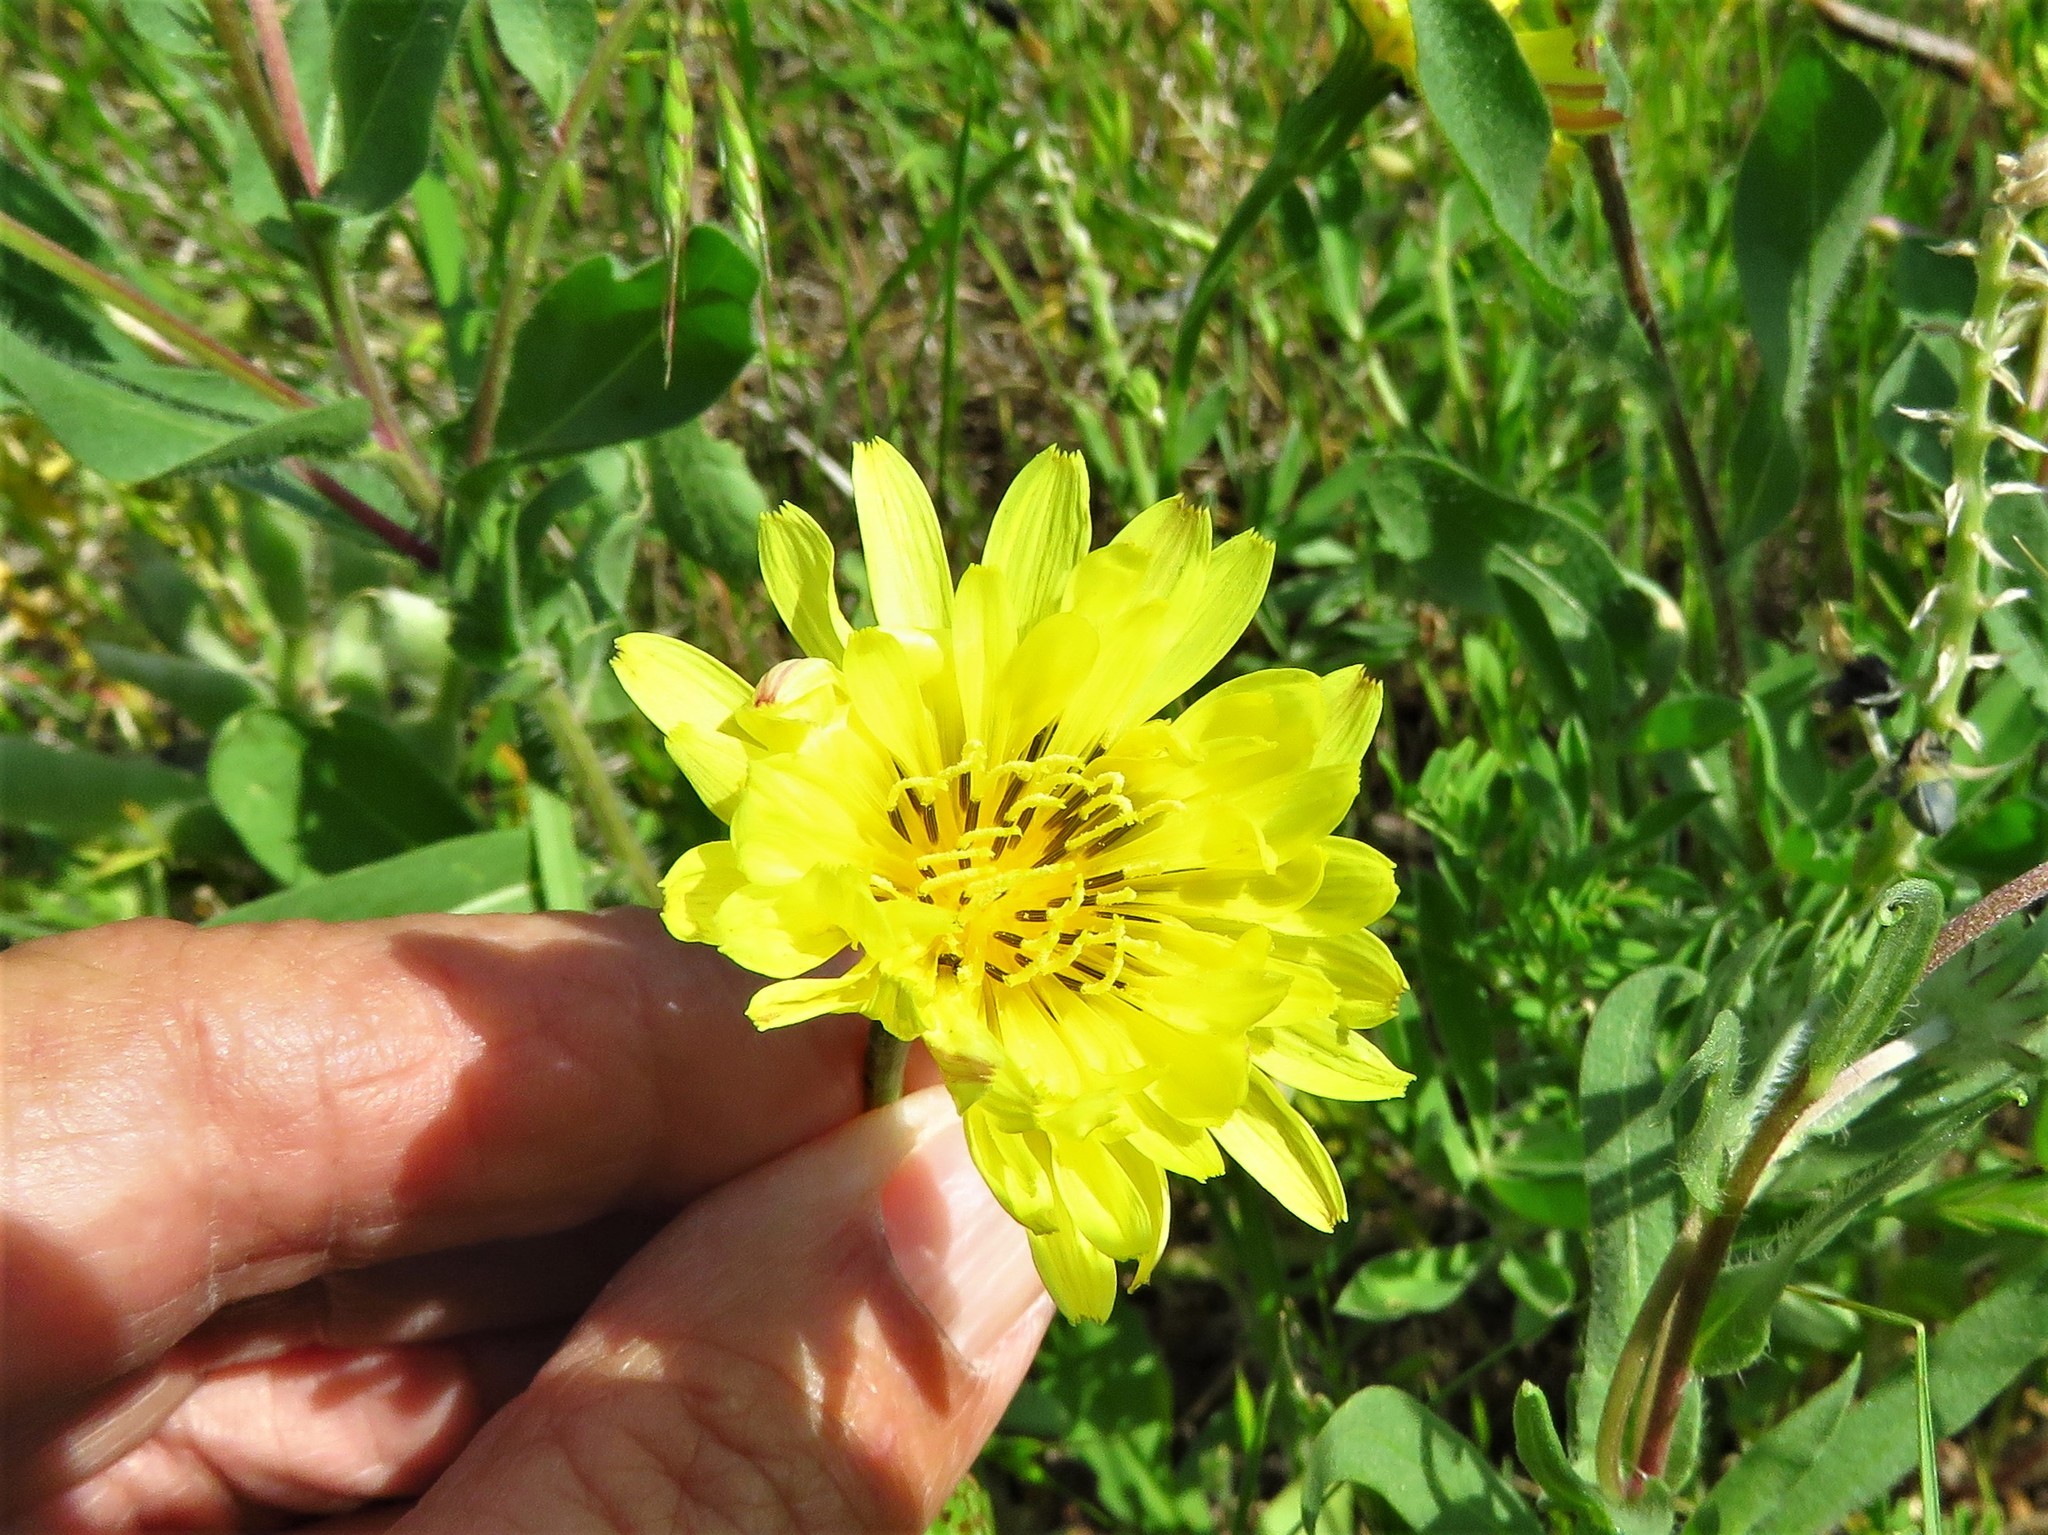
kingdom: Plantae
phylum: Tracheophyta
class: Magnoliopsida
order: Asterales
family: Asteraceae
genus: Pyrrhopappus
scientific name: Pyrrhopappus pauciflorus
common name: Texas false dandelion
